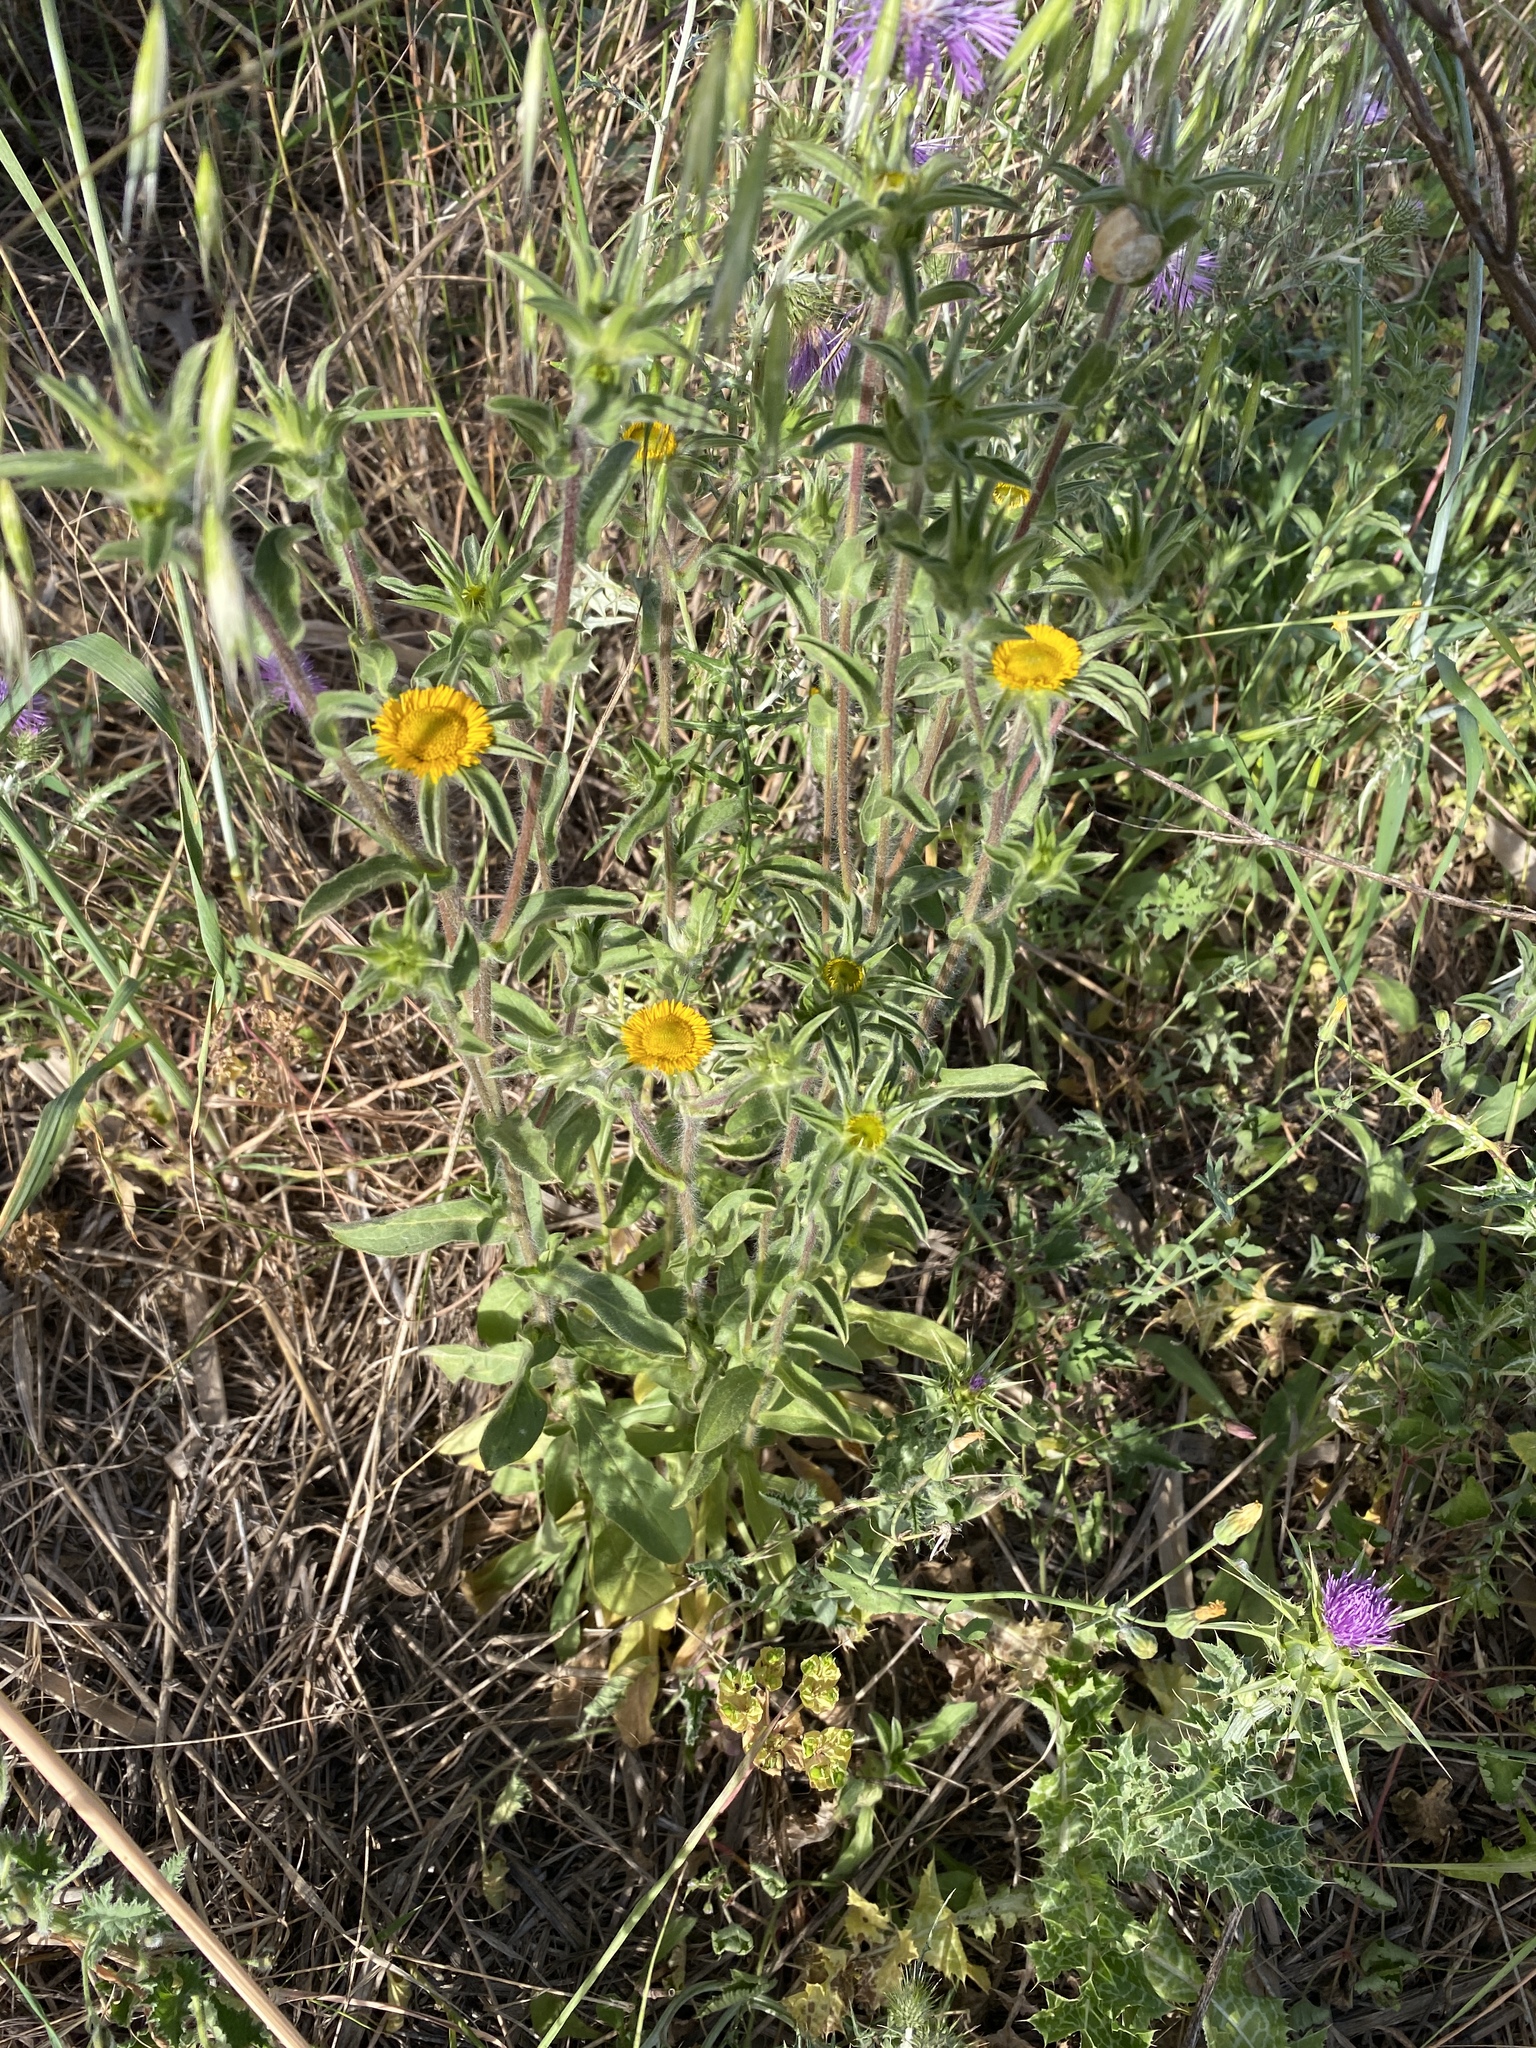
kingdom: Plantae
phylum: Tracheophyta
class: Magnoliopsida
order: Asterales
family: Asteraceae
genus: Pallenis
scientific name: Pallenis spinosa
